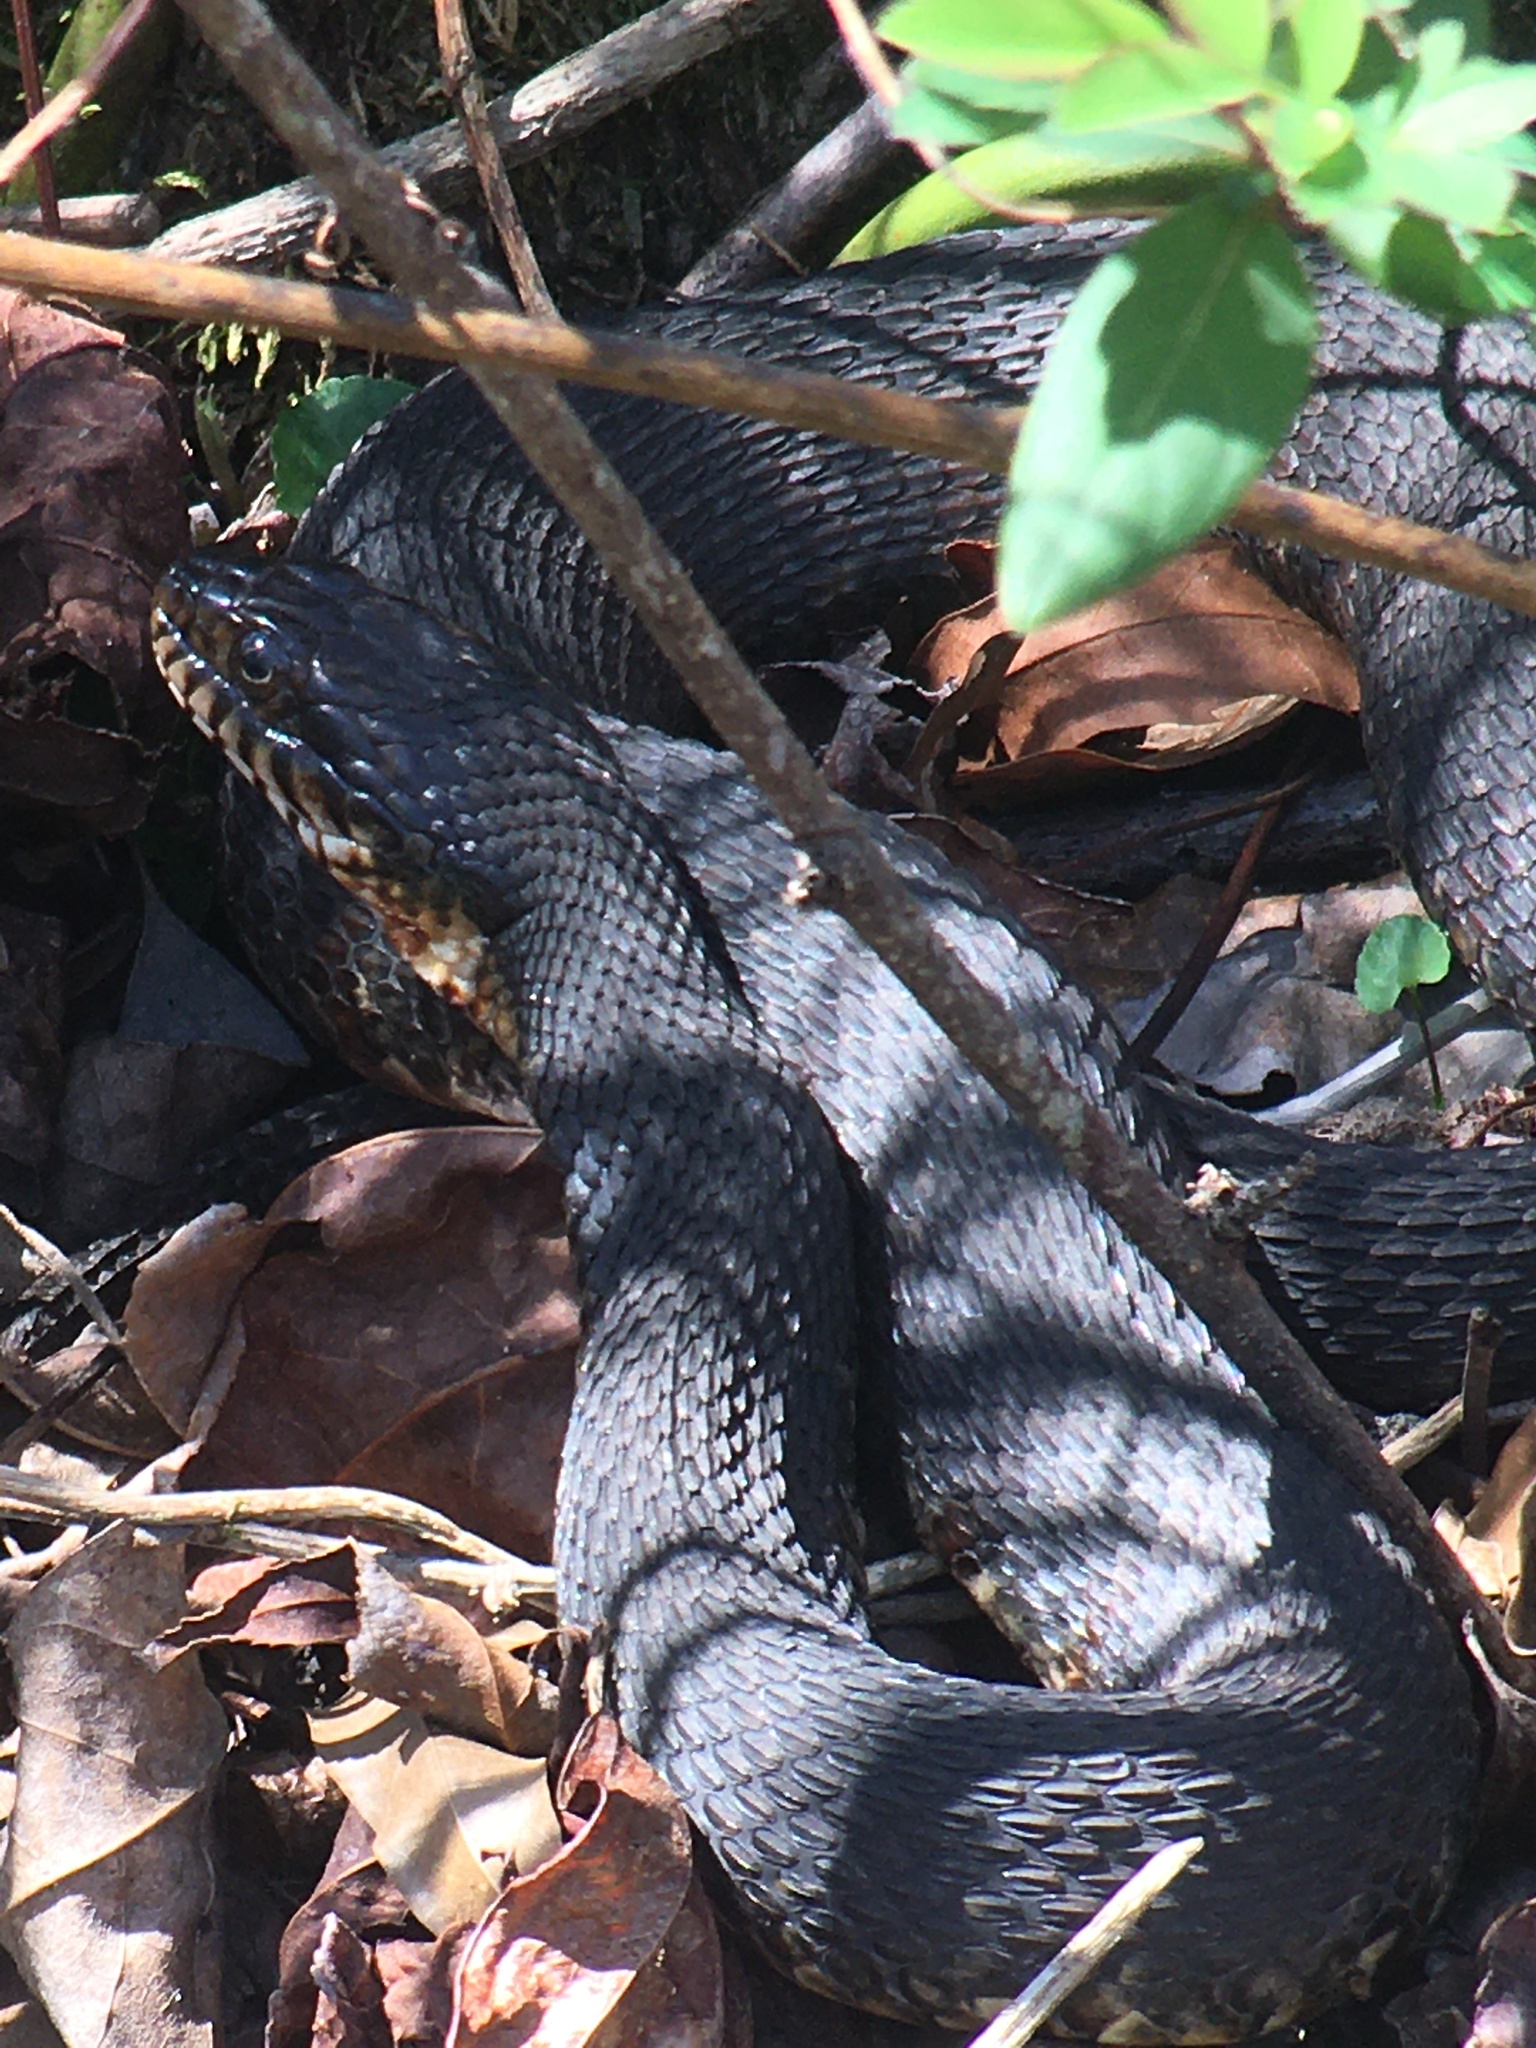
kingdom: Animalia
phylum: Chordata
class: Squamata
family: Colubridae
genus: Nerodia
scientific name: Nerodia fasciata
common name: Southern water snake
